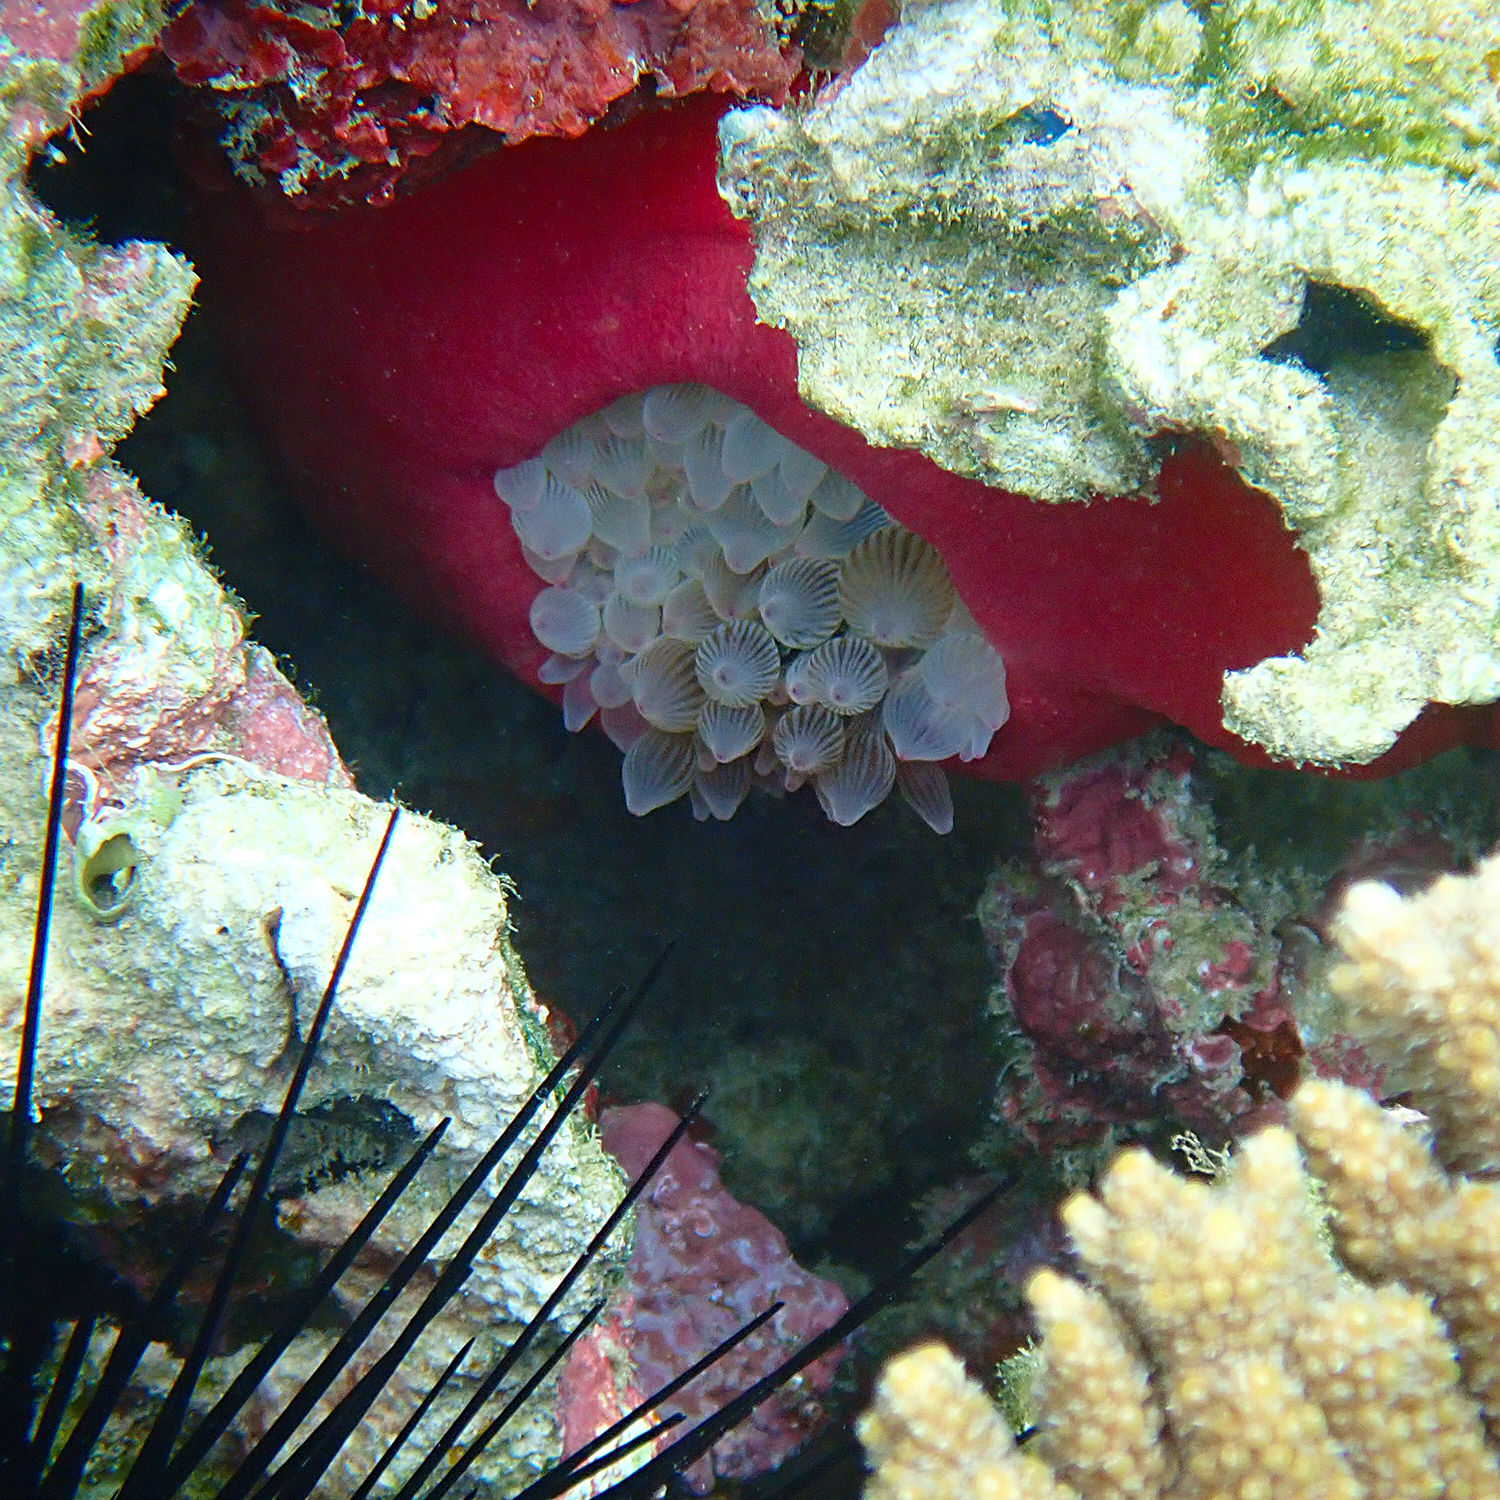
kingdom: Animalia
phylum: Cnidaria
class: Anthozoa
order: Actiniaria
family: Actiniidae
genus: Entacmaea
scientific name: Entacmaea quadricolor
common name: Bulb tentacle sea anemone
